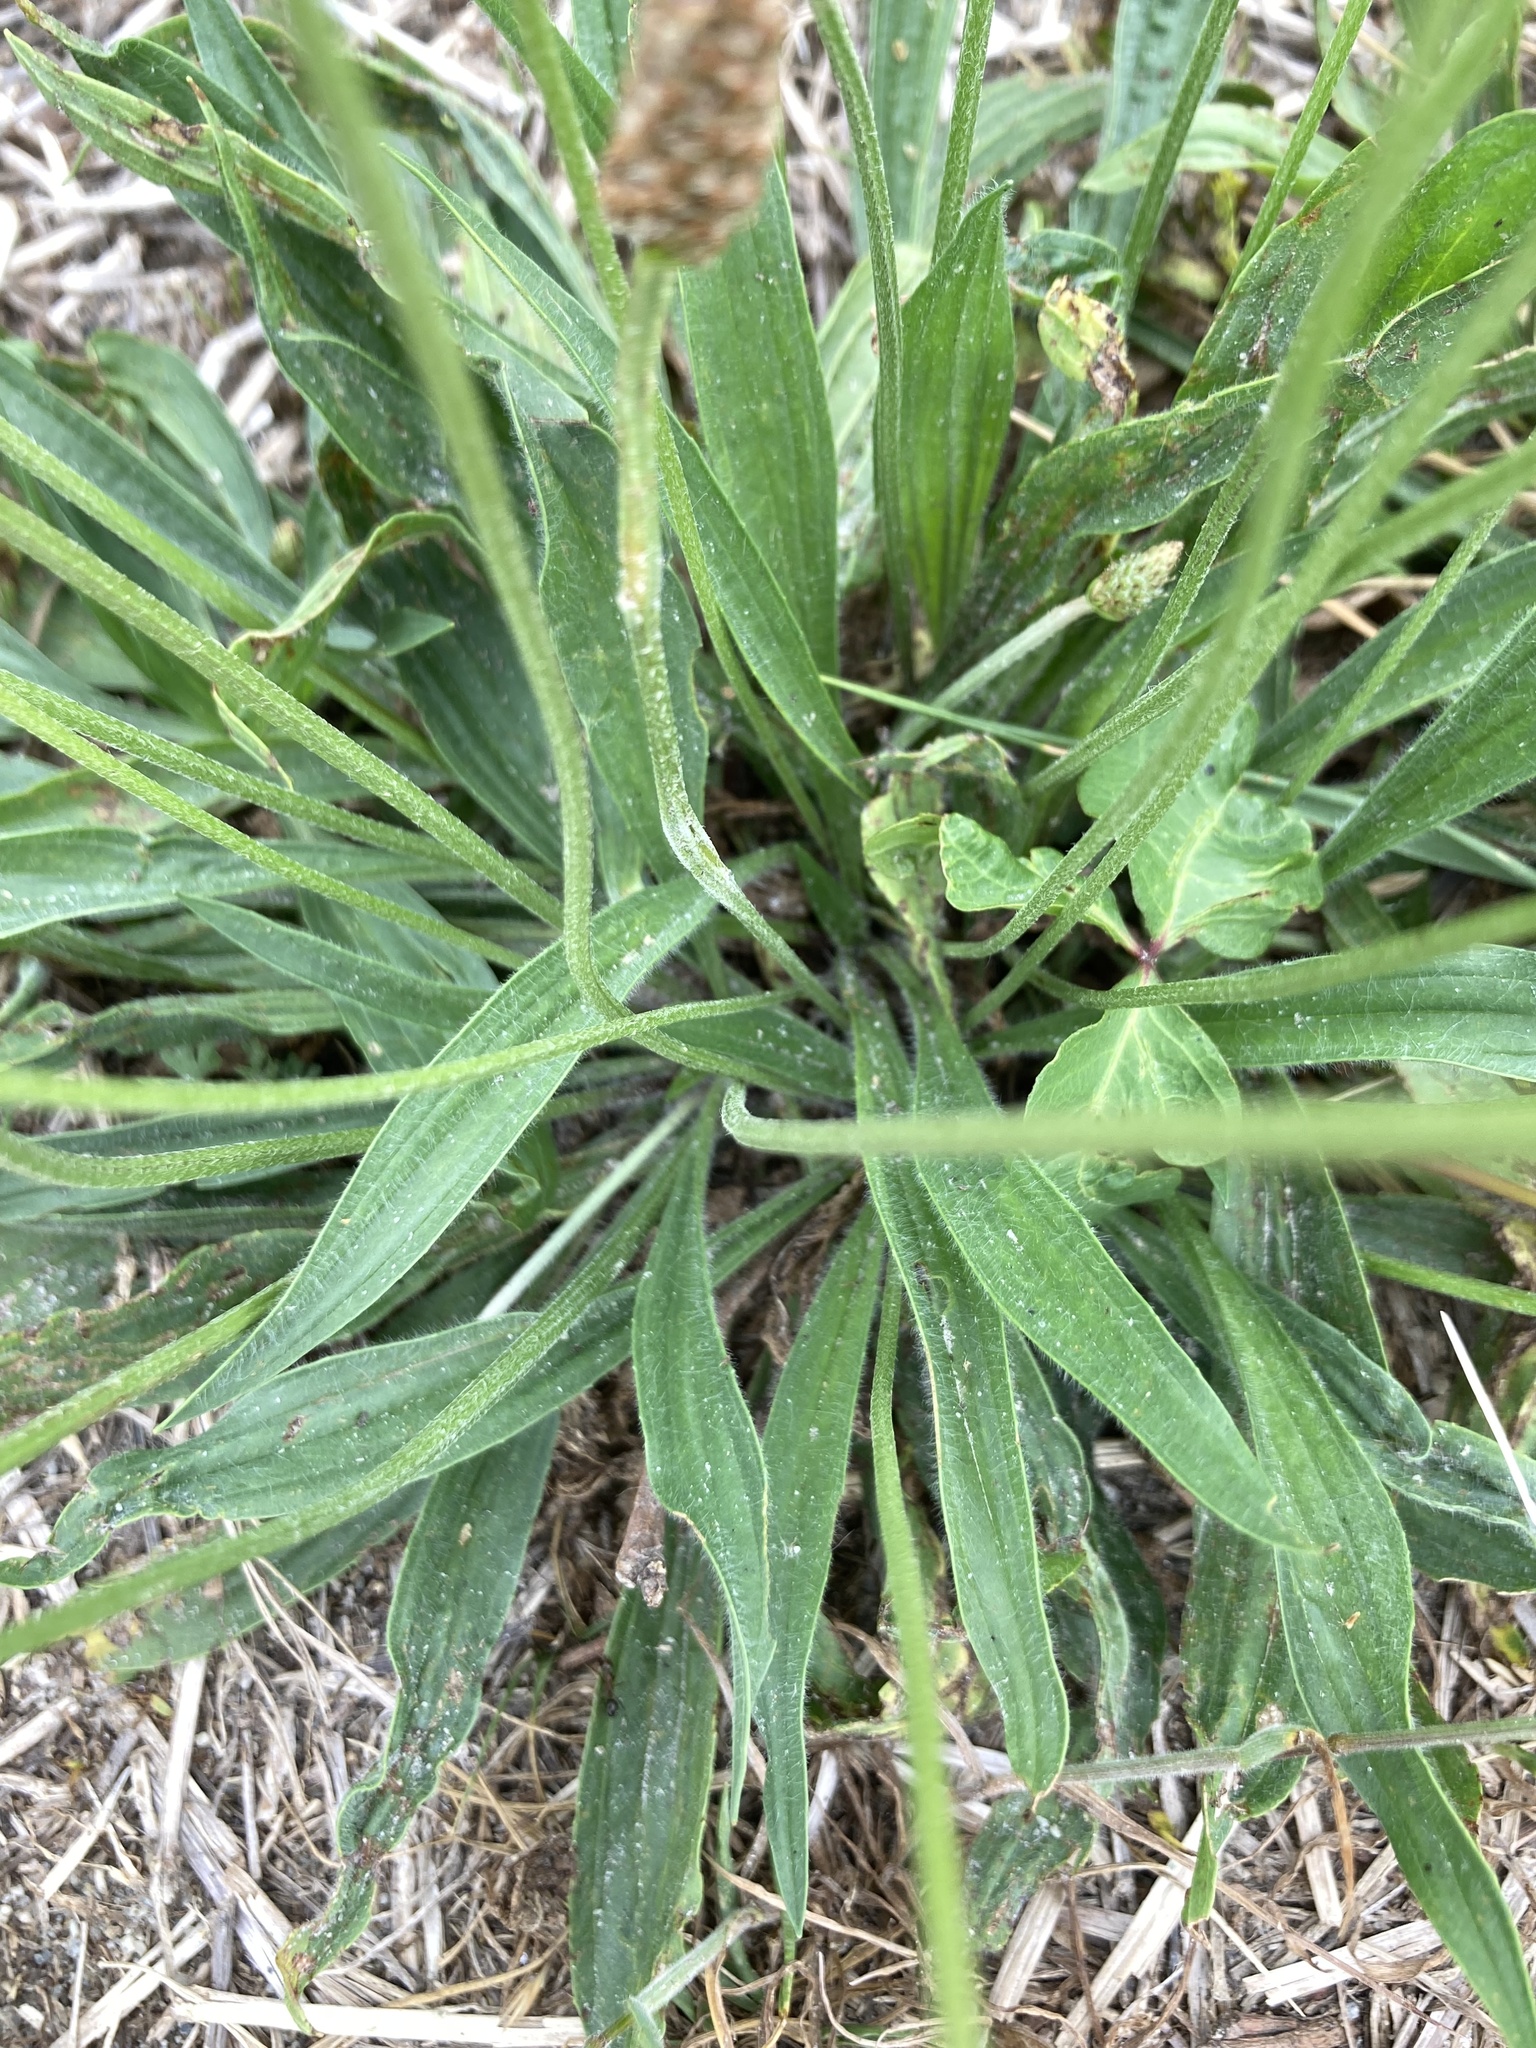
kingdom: Plantae
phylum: Tracheophyta
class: Magnoliopsida
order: Lamiales
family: Plantaginaceae
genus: Plantago
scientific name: Plantago lanceolata
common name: Ribwort plantain
